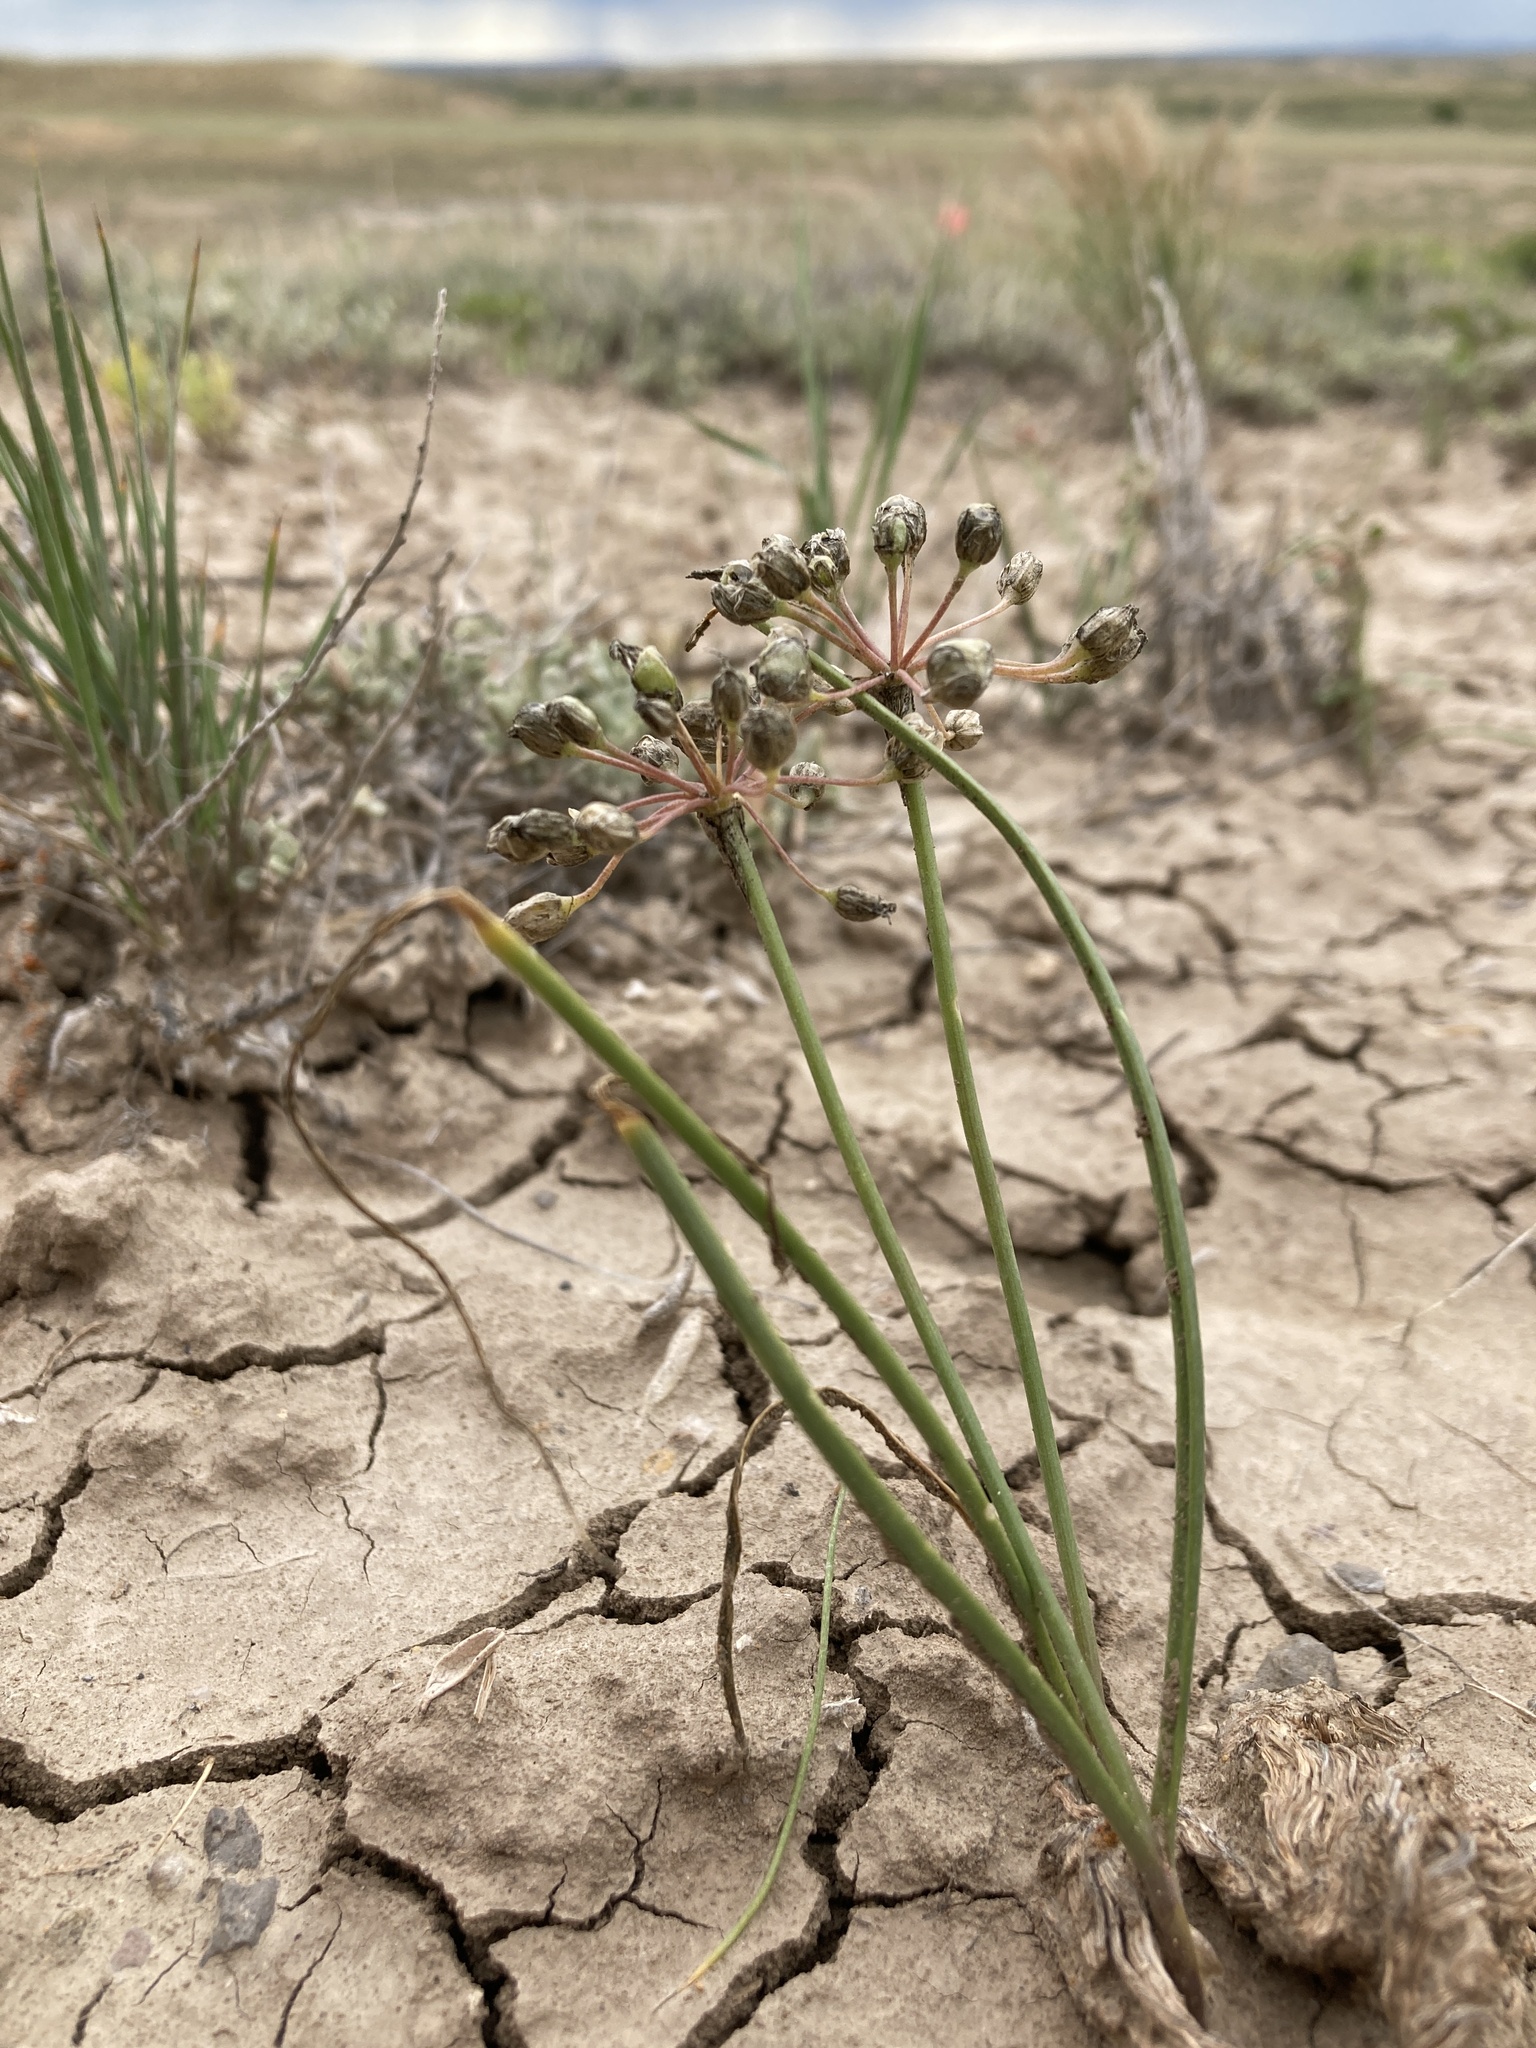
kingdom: Plantae
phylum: Tracheophyta
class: Liliopsida
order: Asparagales
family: Amaryllidaceae
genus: Allium
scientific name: Allium textile
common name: Prairie onion
